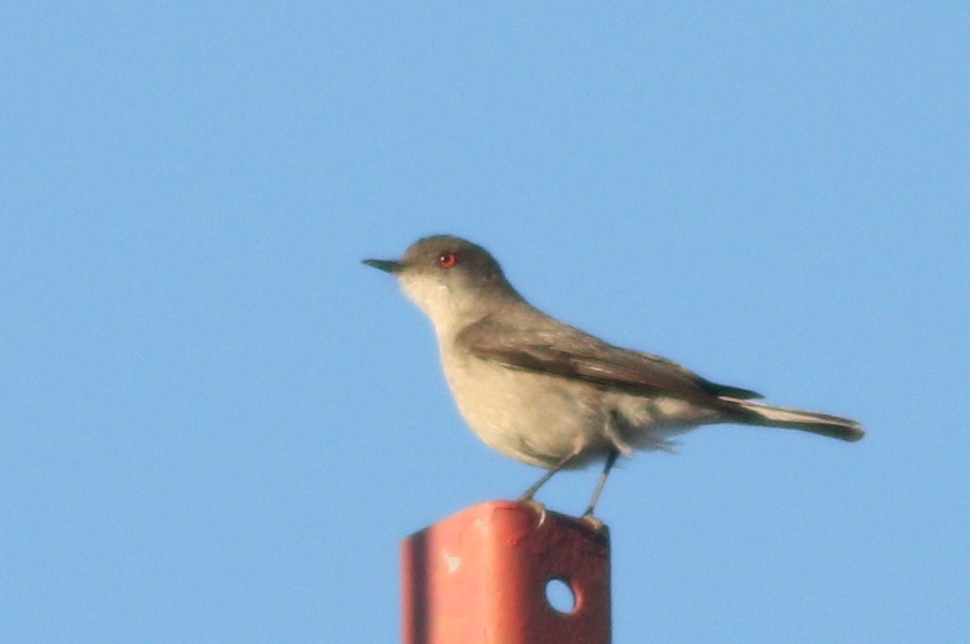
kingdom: Animalia
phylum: Chordata
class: Aves
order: Passeriformes
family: Tyrannidae
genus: Xolmis
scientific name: Xolmis pyrope
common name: Fire-eyed diucon
